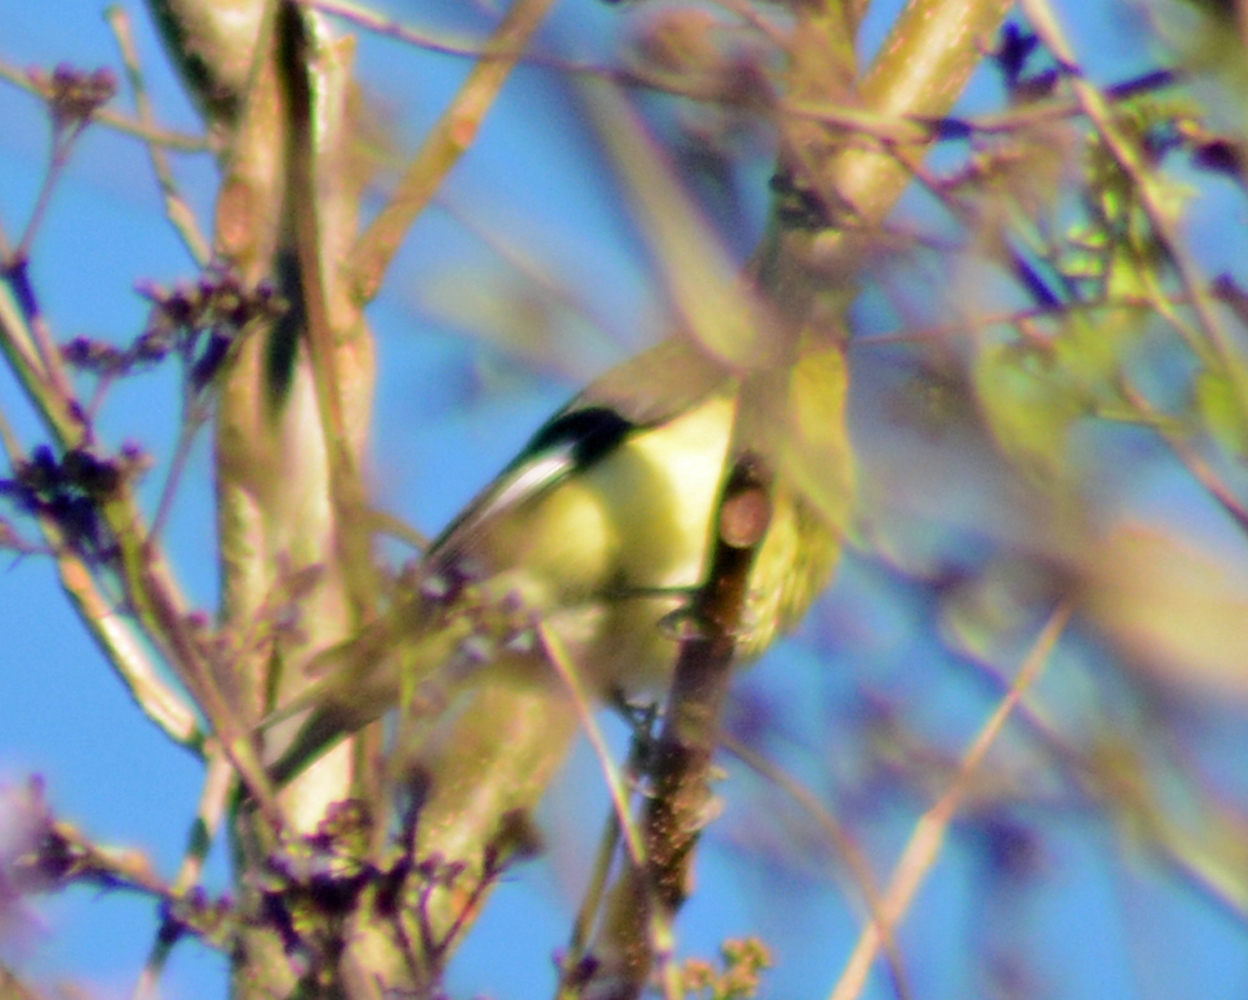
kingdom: Animalia
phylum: Chordata
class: Aves
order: Passeriformes
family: Fringillidae
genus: Spinus
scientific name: Spinus psaltria
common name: Lesser goldfinch
